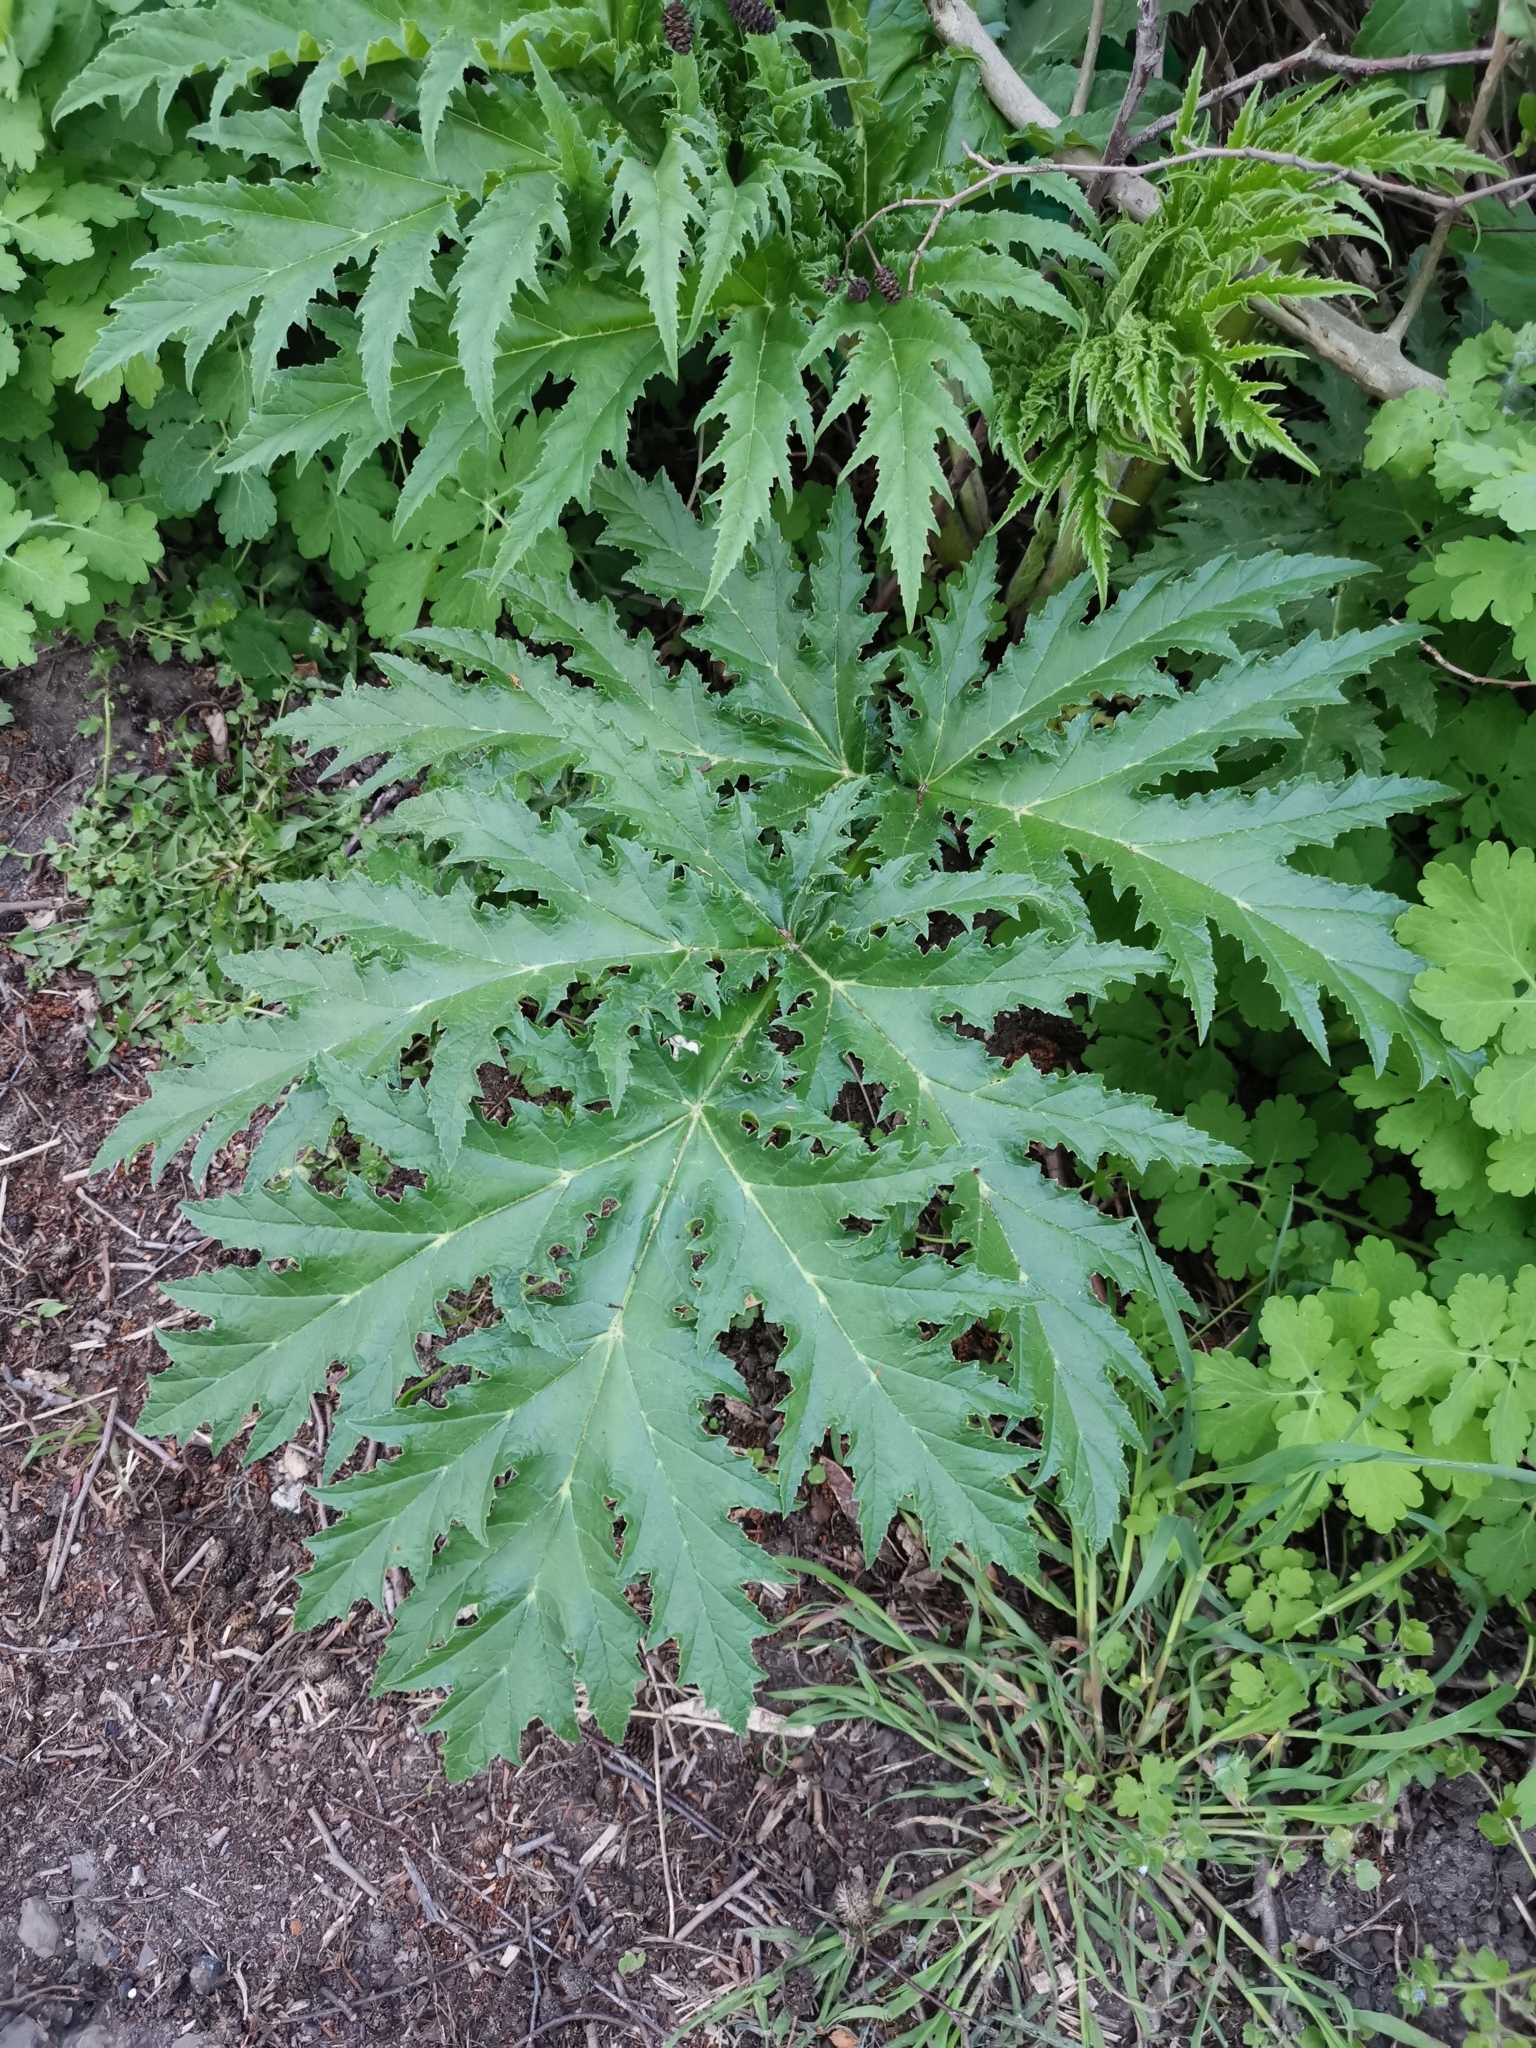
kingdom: Plantae
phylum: Tracheophyta
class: Magnoliopsida
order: Apiales
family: Apiaceae
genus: Heracleum
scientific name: Heracleum mantegazzianum
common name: Giant hogweed
